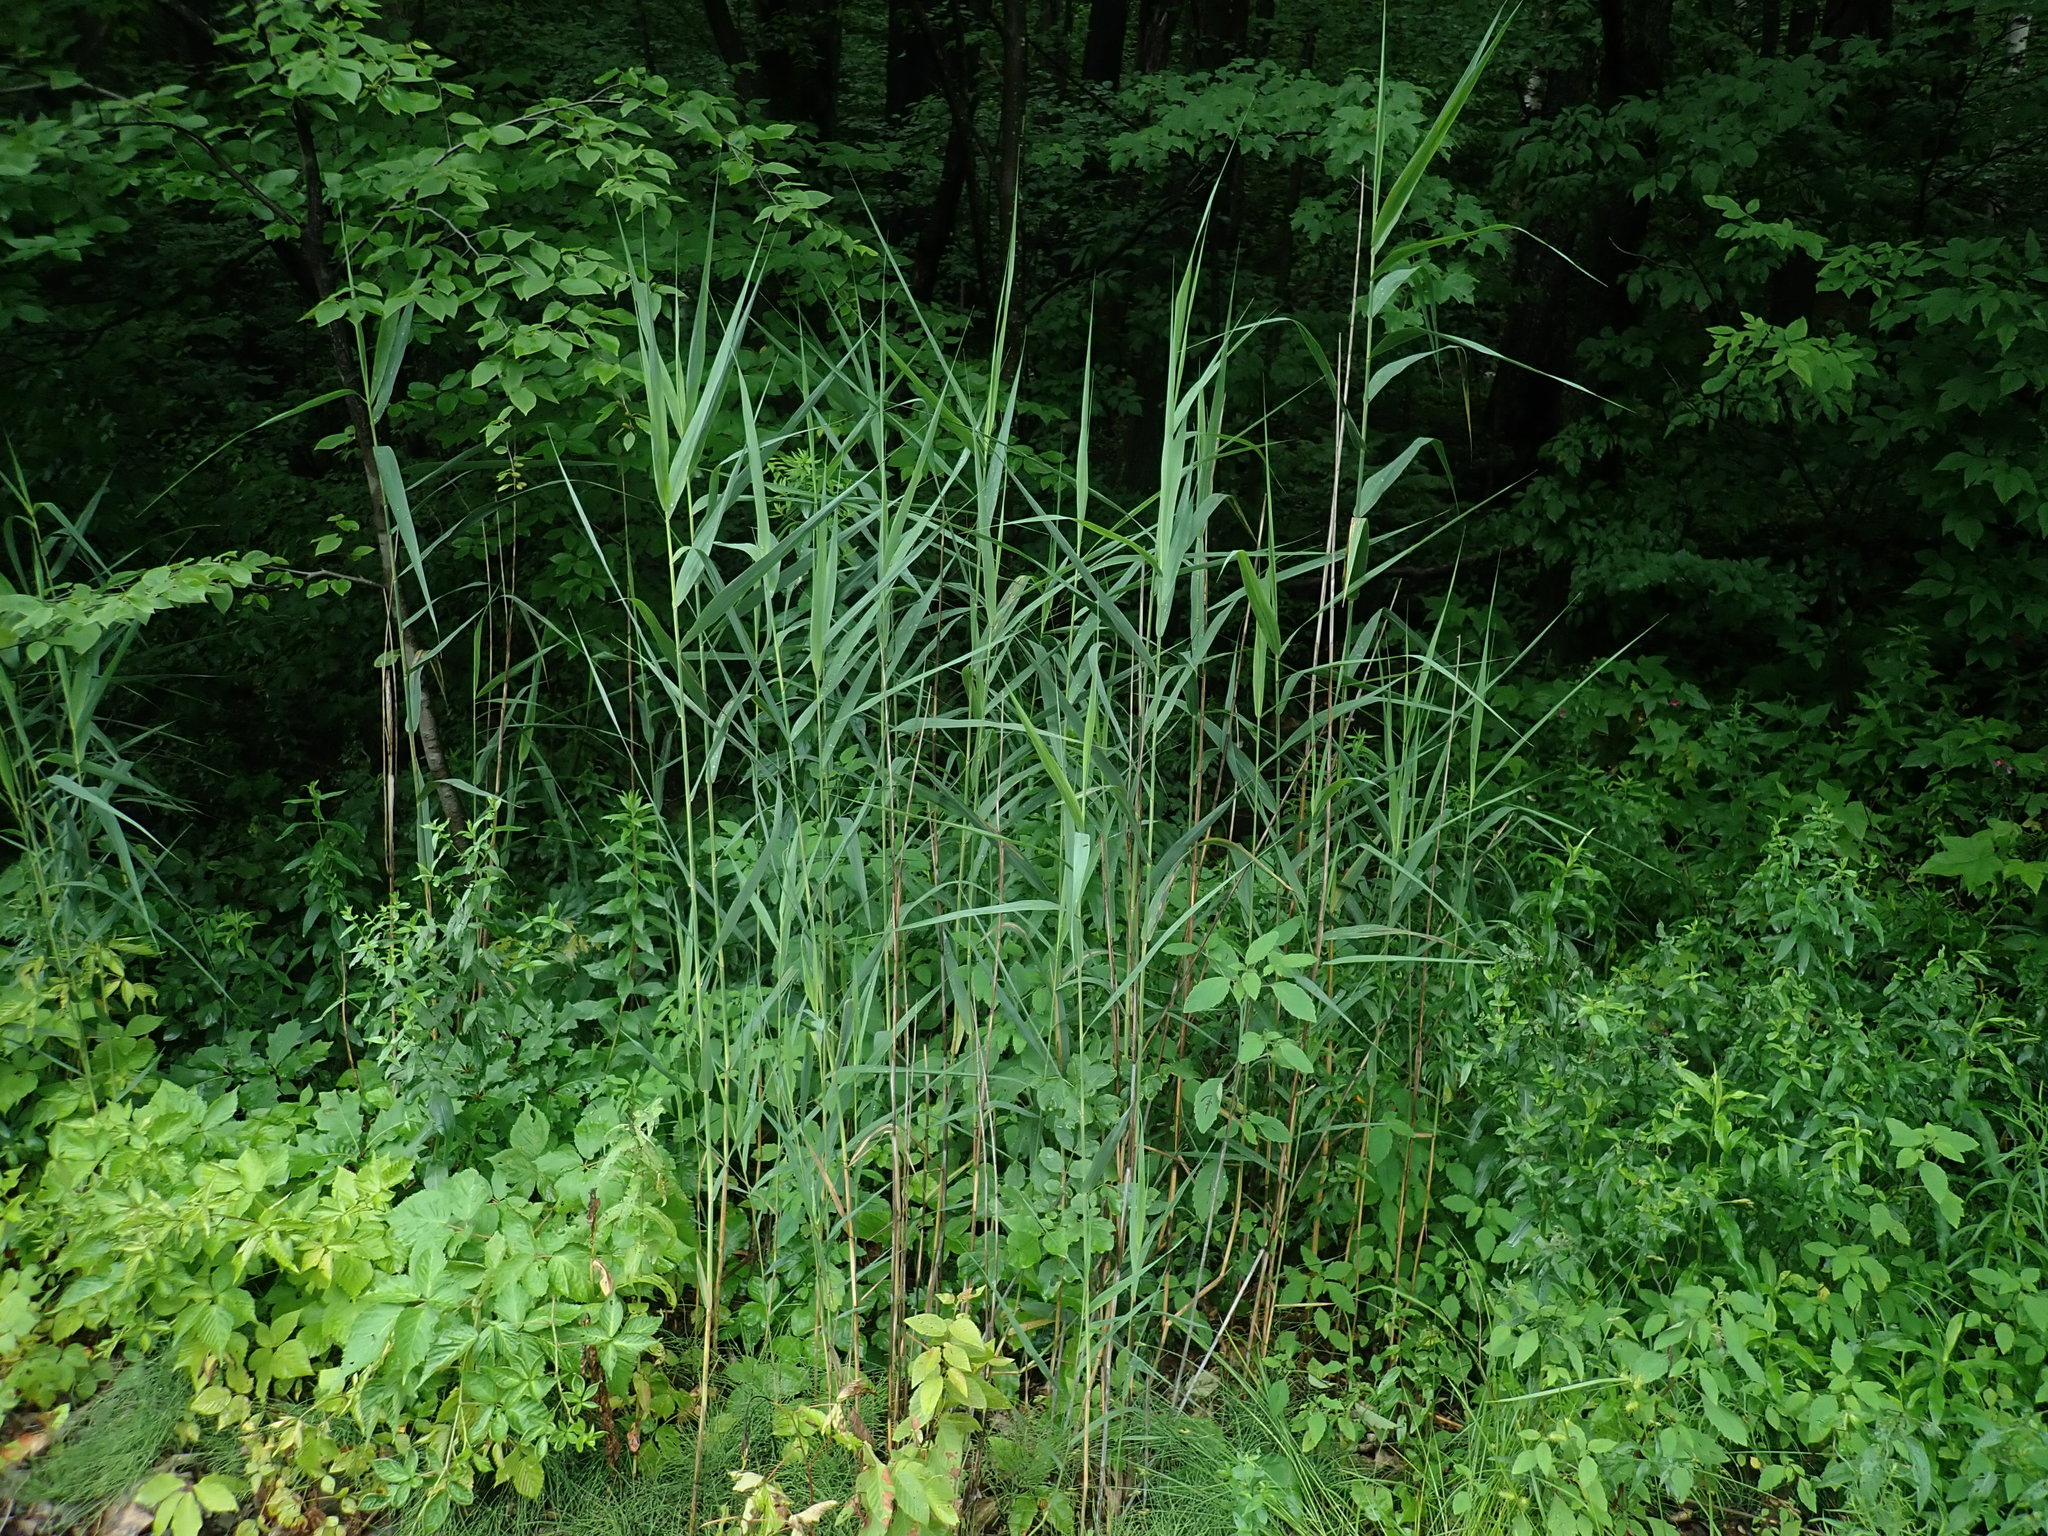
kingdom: Plantae
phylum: Tracheophyta
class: Liliopsida
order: Poales
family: Poaceae
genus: Phragmites
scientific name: Phragmites australis
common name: Common reed
